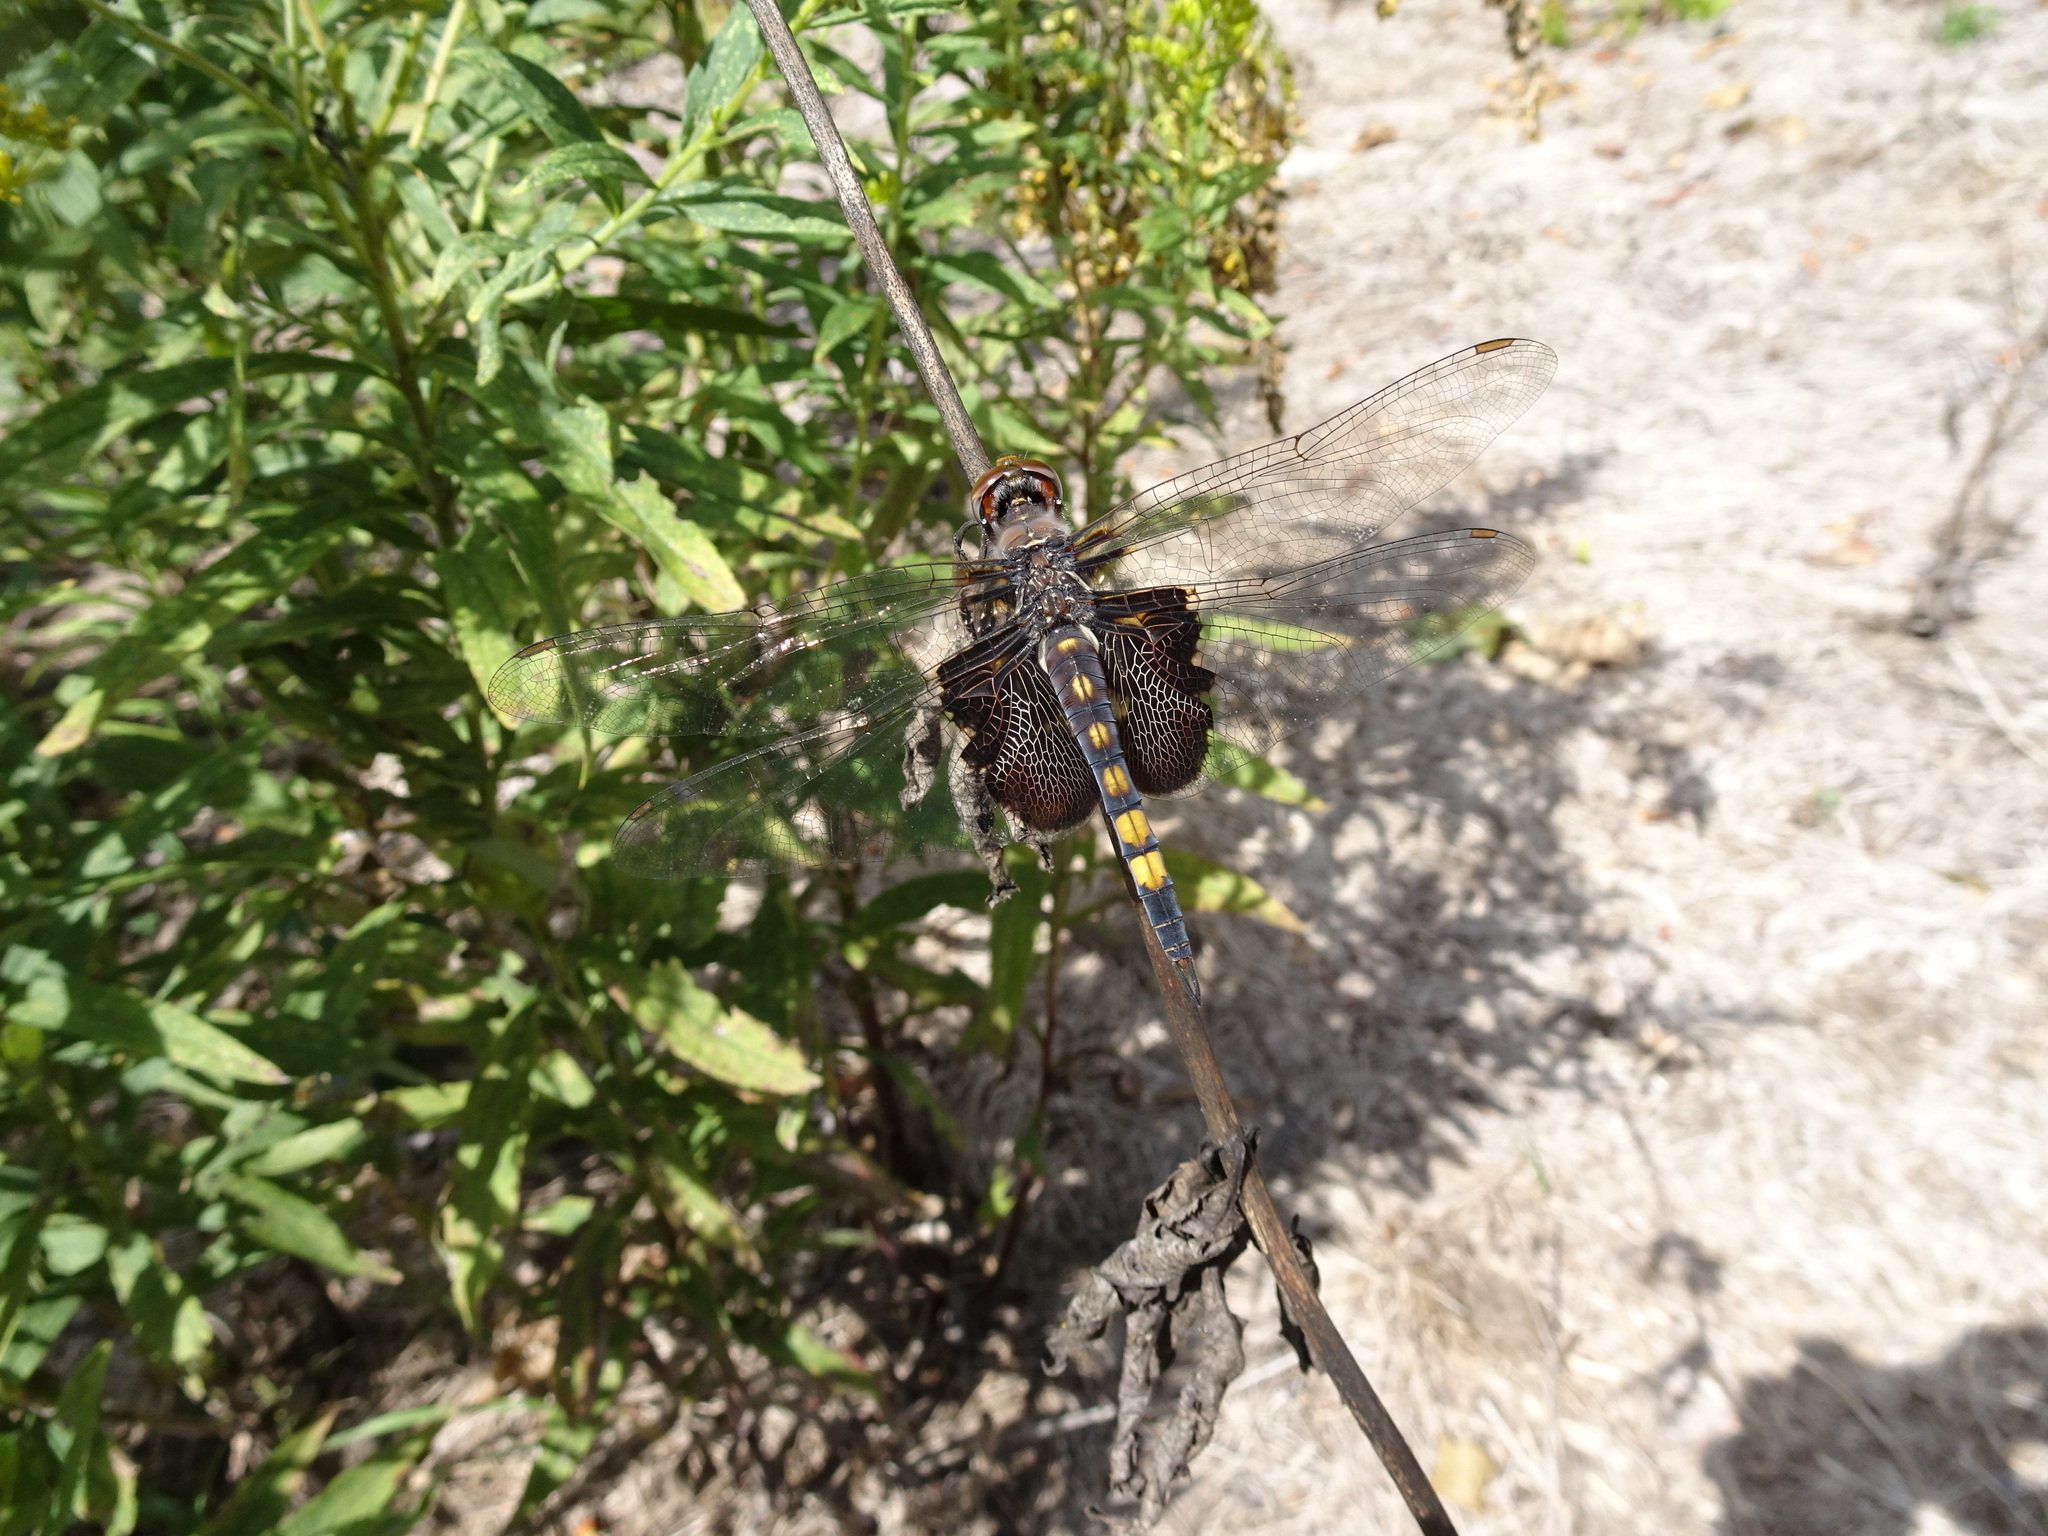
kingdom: Animalia
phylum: Arthropoda
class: Insecta
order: Odonata
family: Libellulidae
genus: Tramea
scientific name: Tramea lacerata
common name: Black saddlebags
